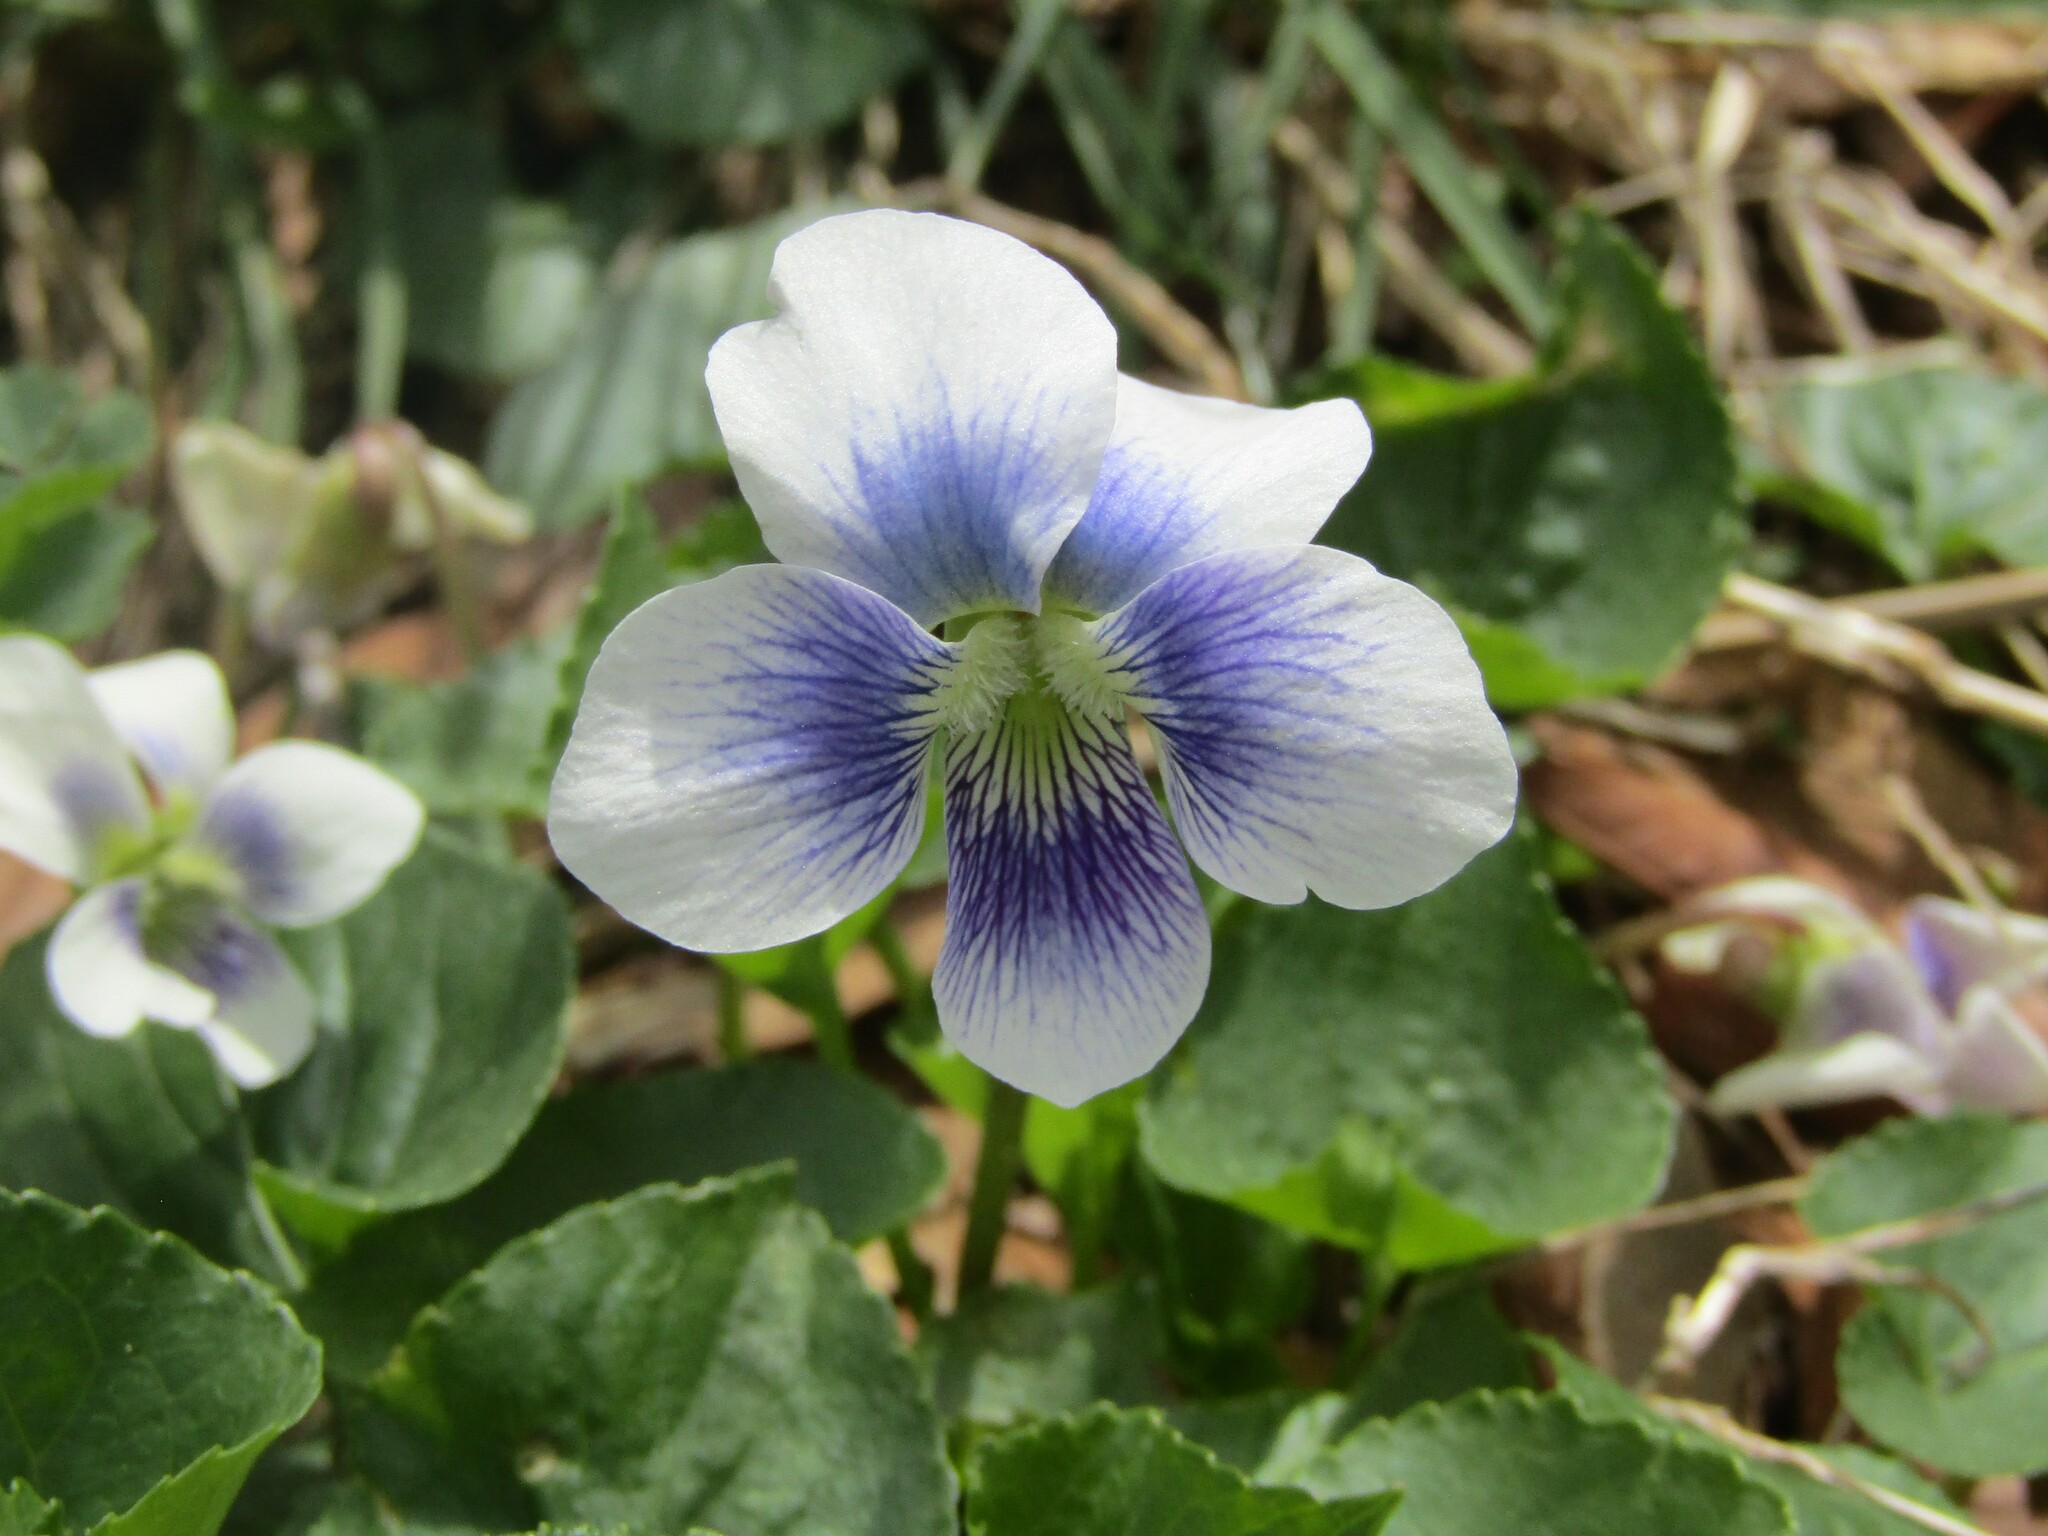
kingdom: Plantae
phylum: Tracheophyta
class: Magnoliopsida
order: Malpighiales
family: Violaceae
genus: Viola
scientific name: Viola sororia
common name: Dooryard violet
